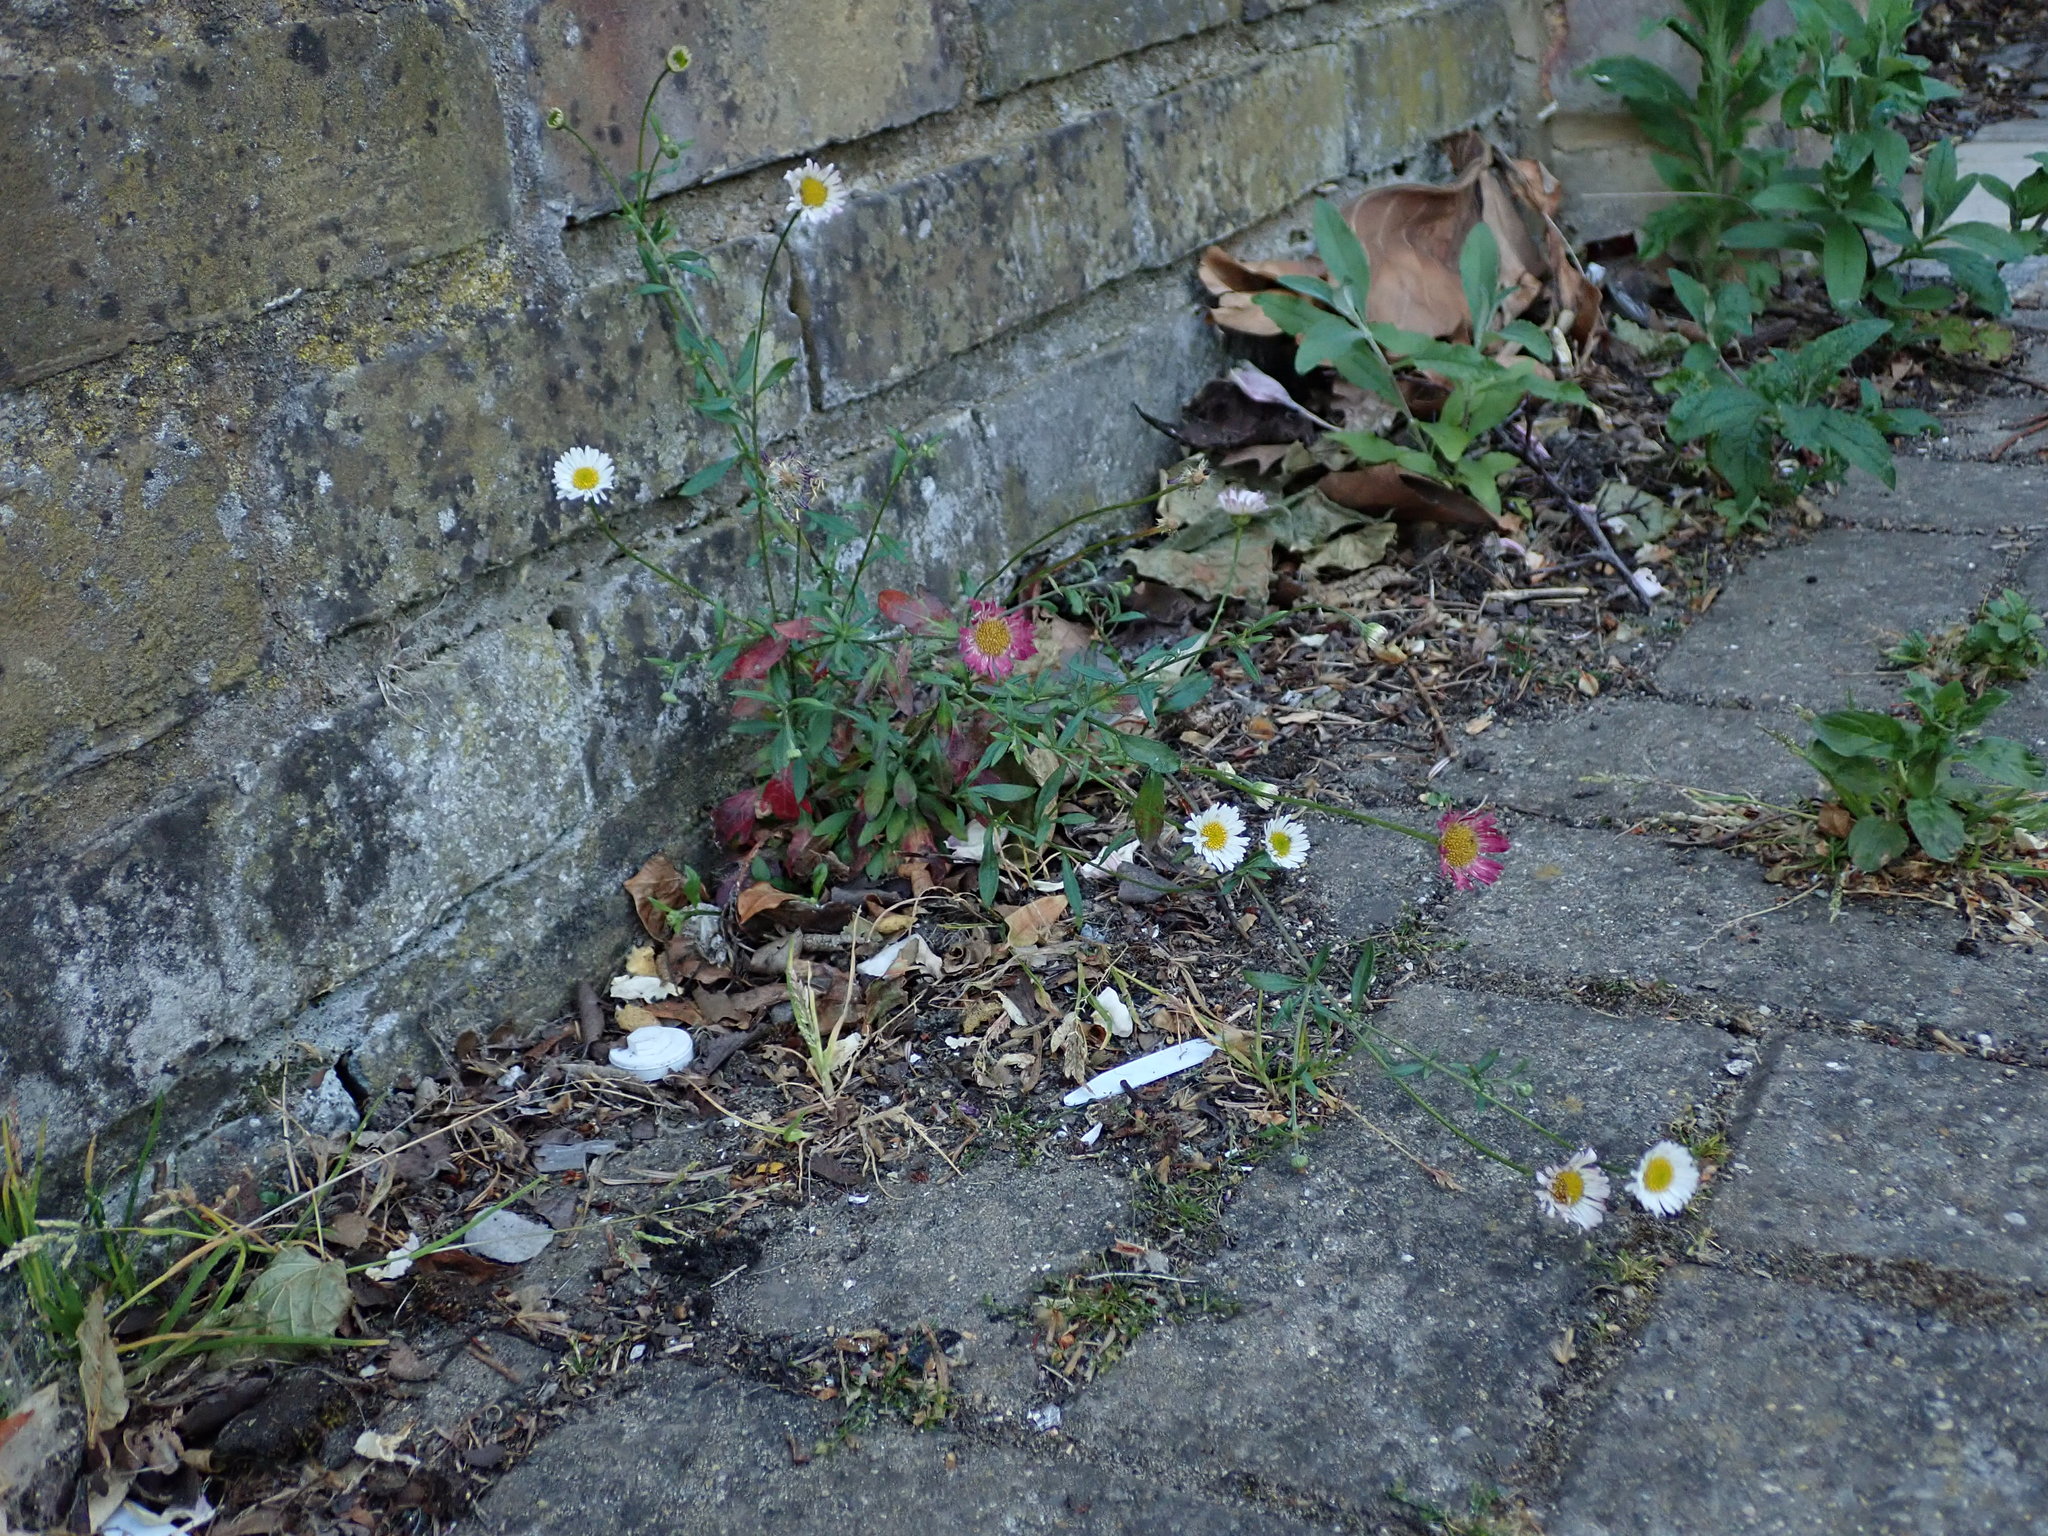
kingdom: Plantae
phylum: Tracheophyta
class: Magnoliopsida
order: Asterales
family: Asteraceae
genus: Erigeron
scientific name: Erigeron karvinskianus
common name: Mexican fleabane
